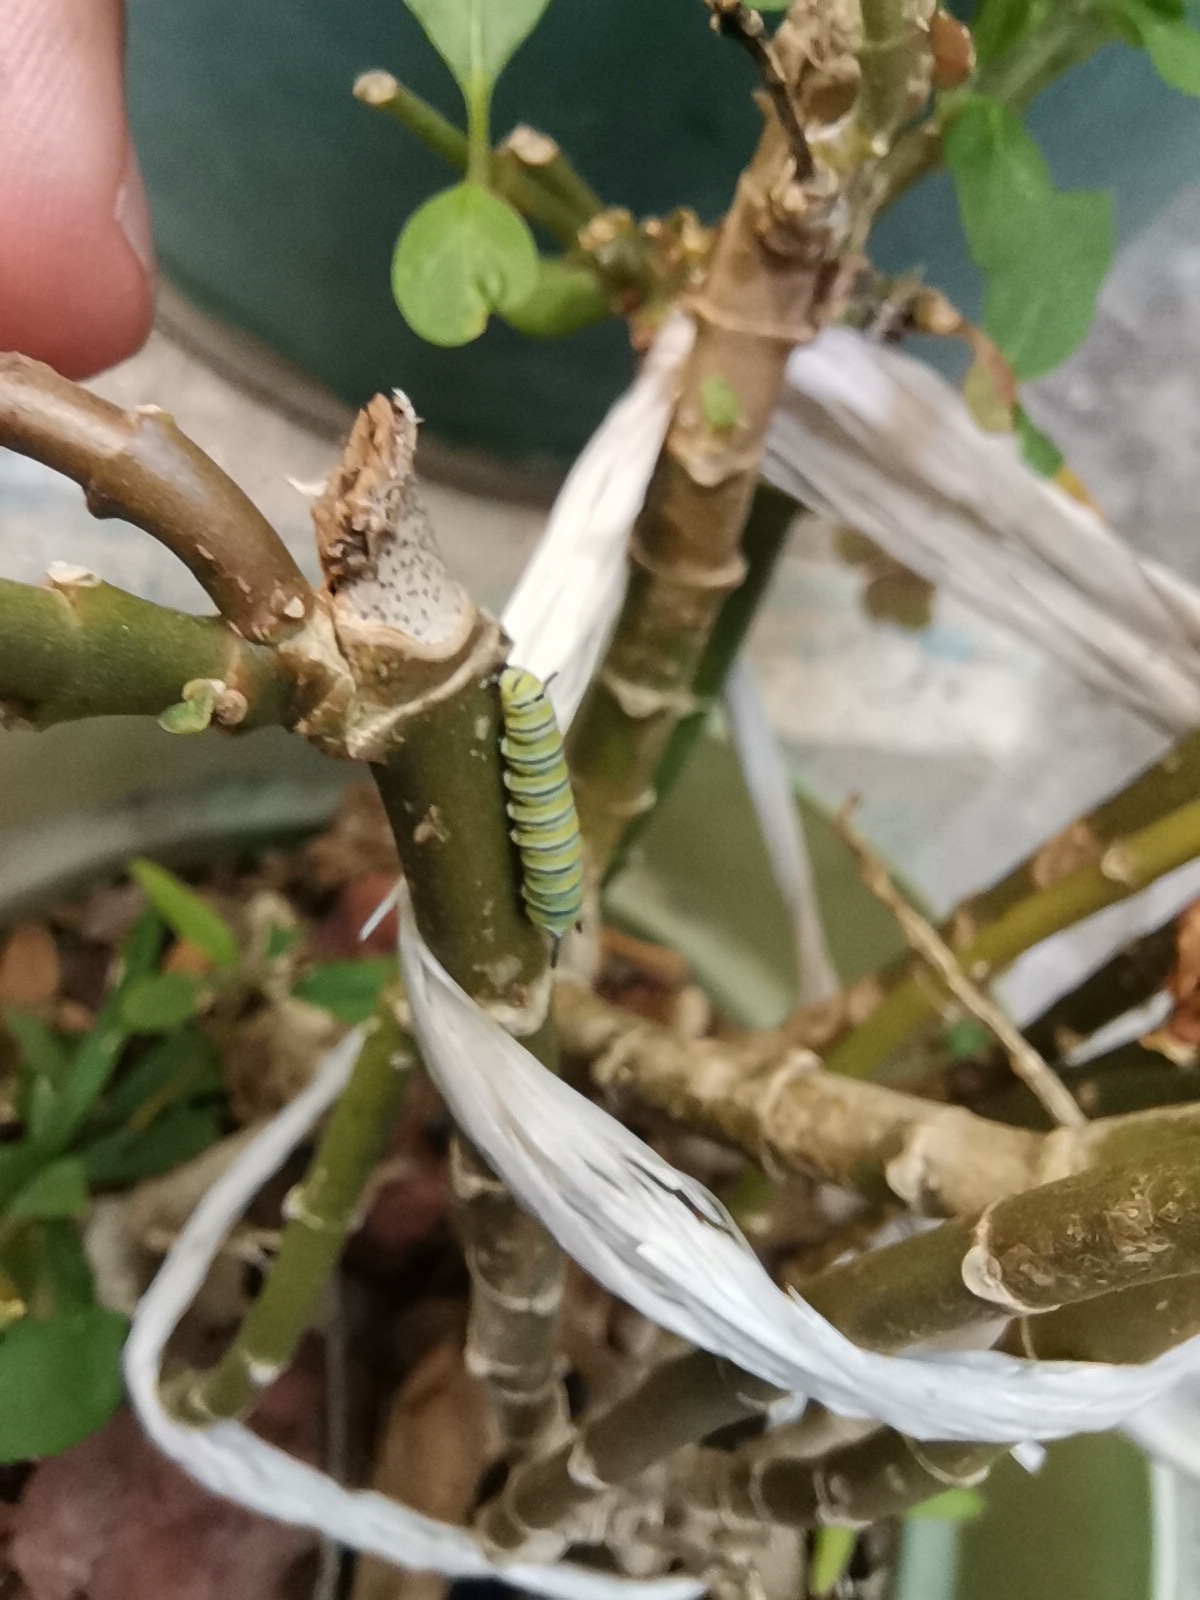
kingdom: Animalia
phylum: Arthropoda
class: Insecta
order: Lepidoptera
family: Nymphalidae
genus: Danaus
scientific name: Danaus plexippus
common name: Monarch
